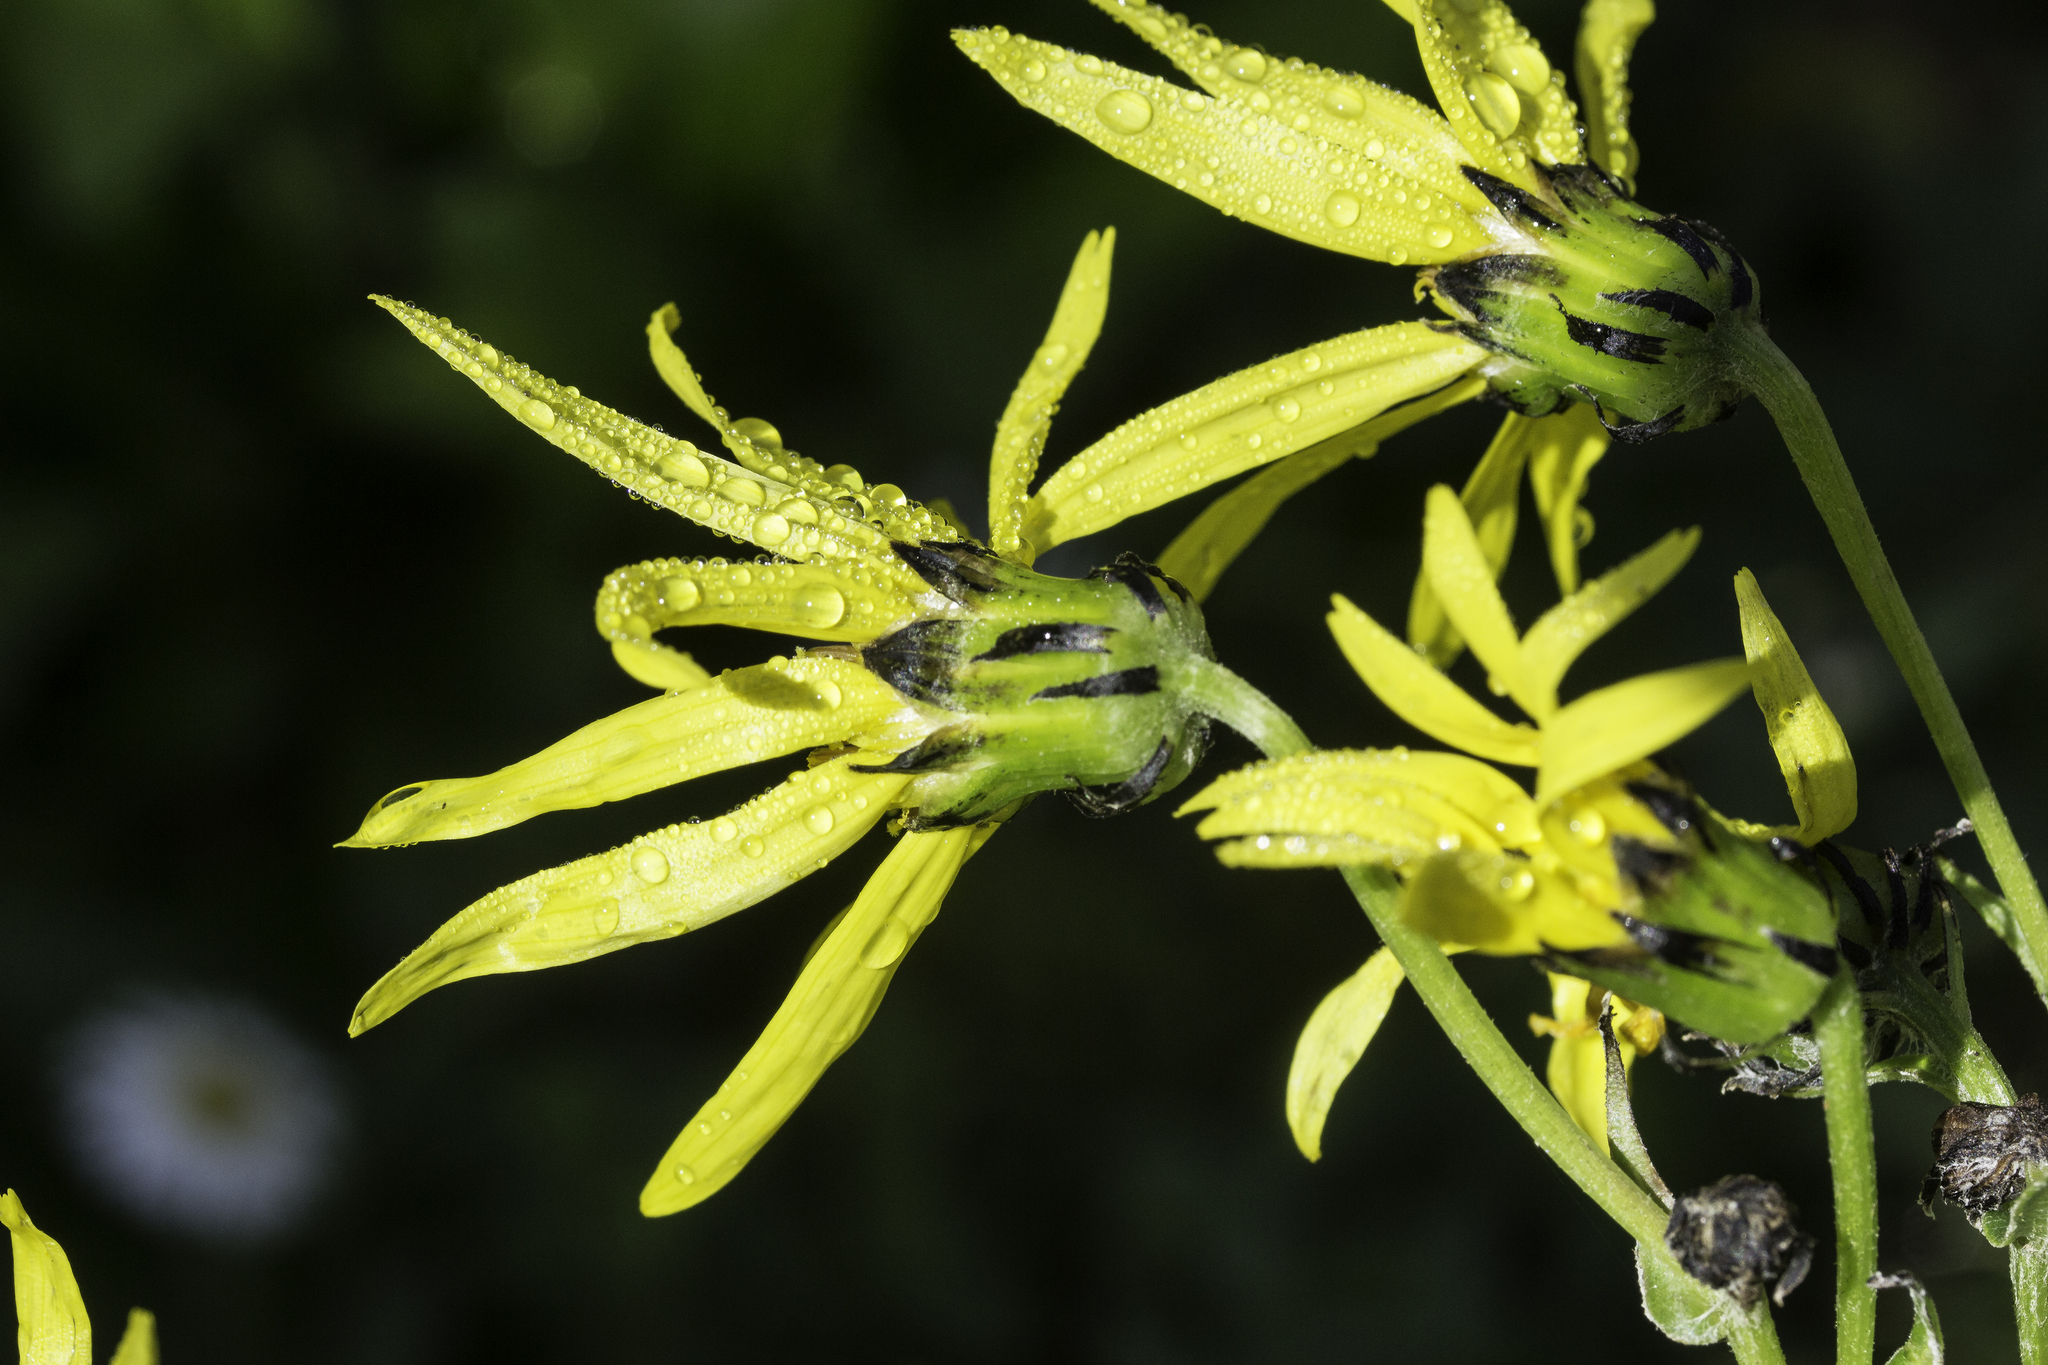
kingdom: Plantae
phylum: Tracheophyta
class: Magnoliopsida
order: Asterales
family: Asteraceae
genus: Senecio
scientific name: Senecio amplectens
